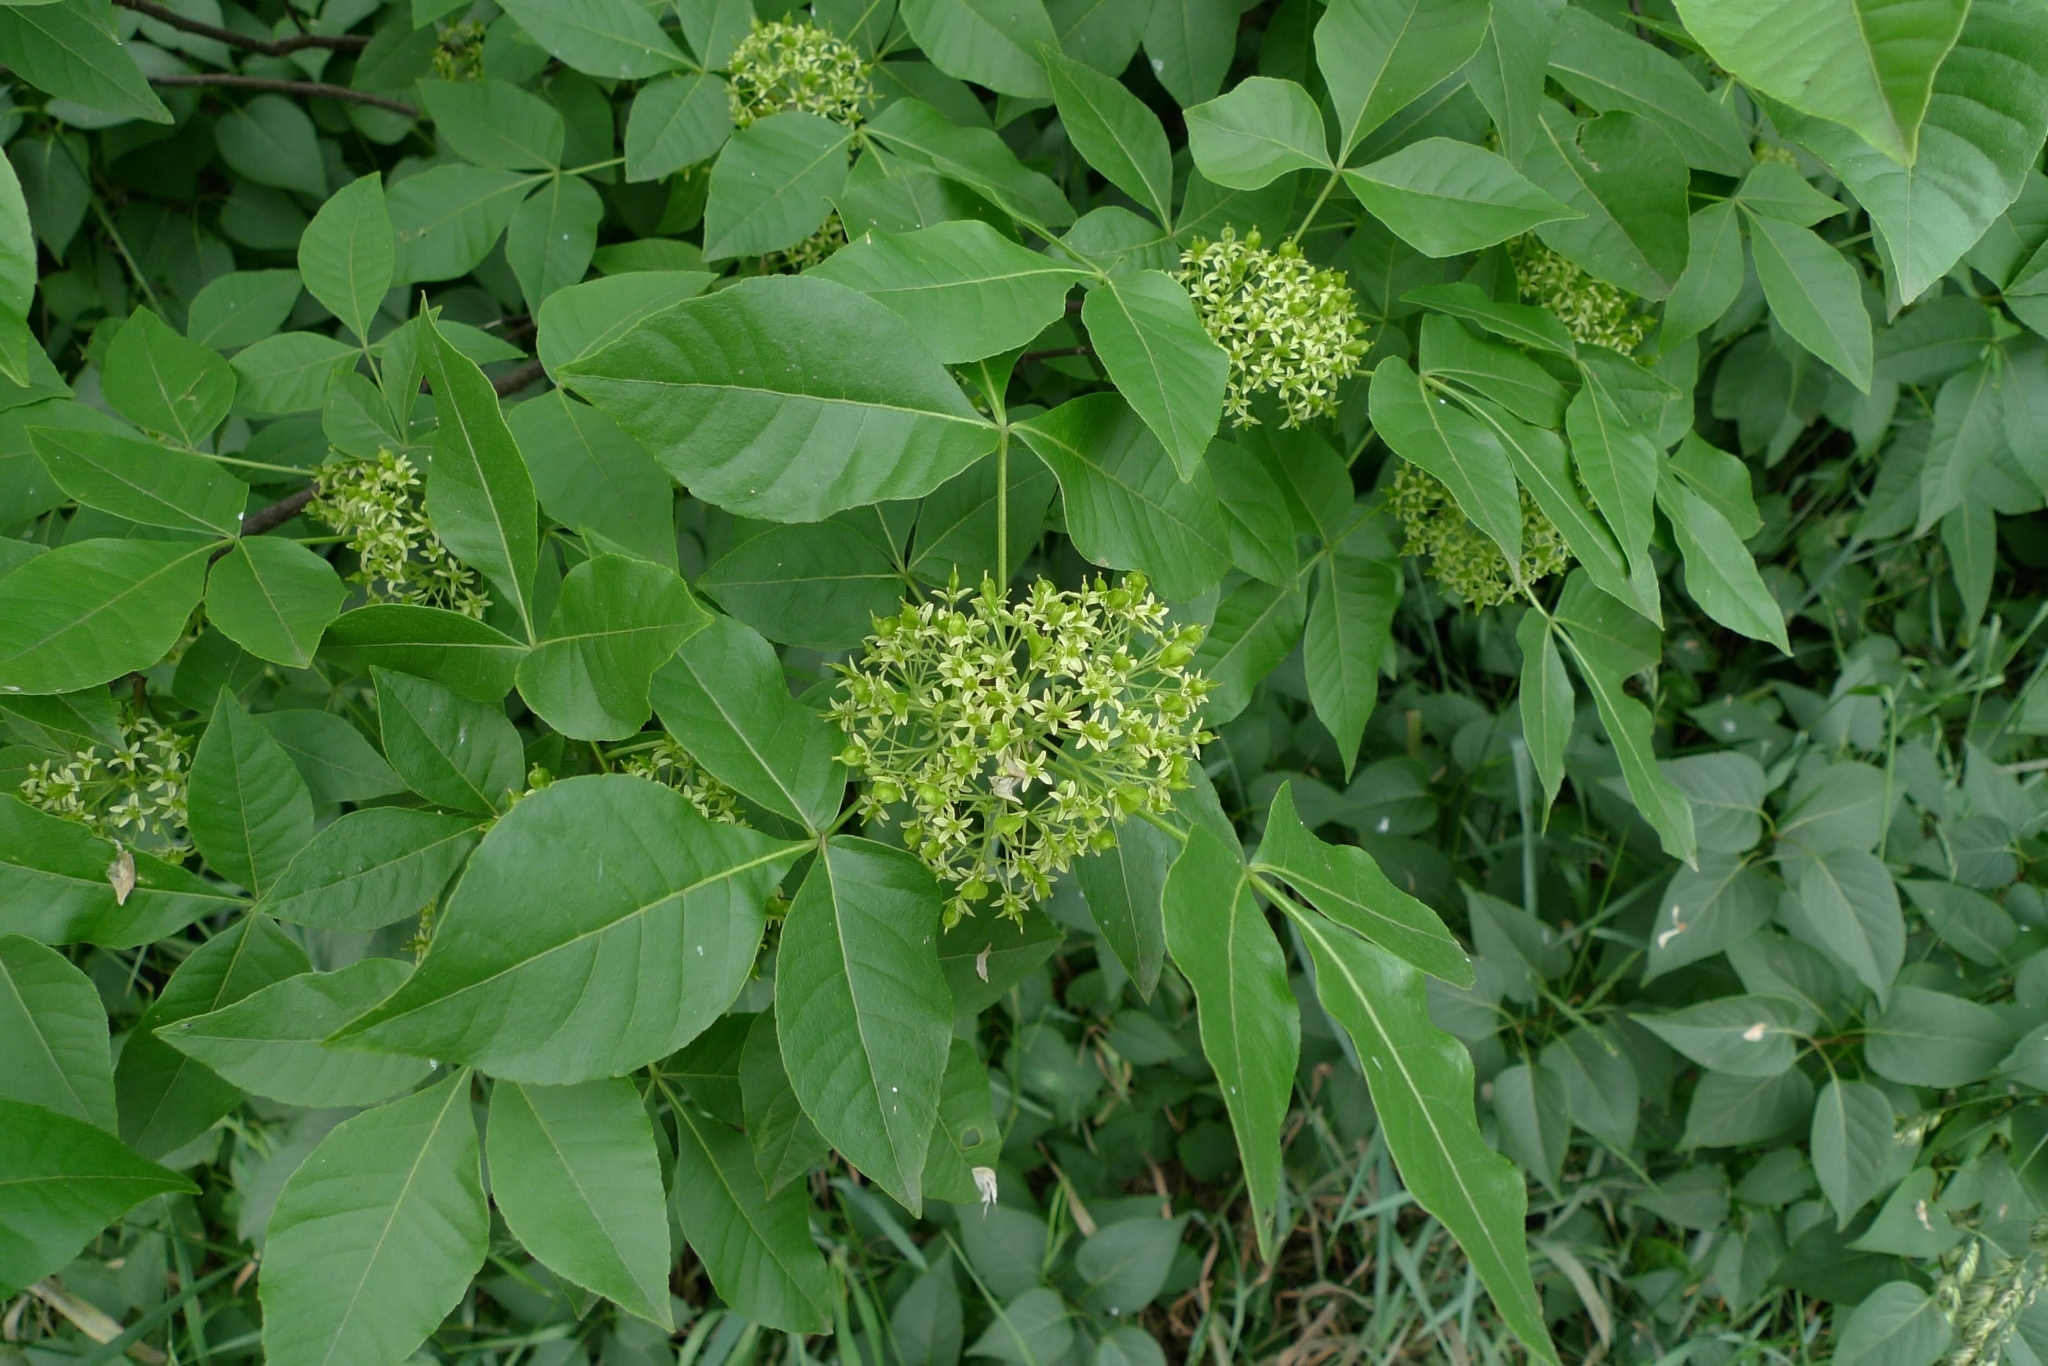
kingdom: Plantae
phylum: Tracheophyta
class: Magnoliopsida
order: Sapindales
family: Rutaceae
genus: Ptelea
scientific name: Ptelea trifoliata
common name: Common hop-tree
